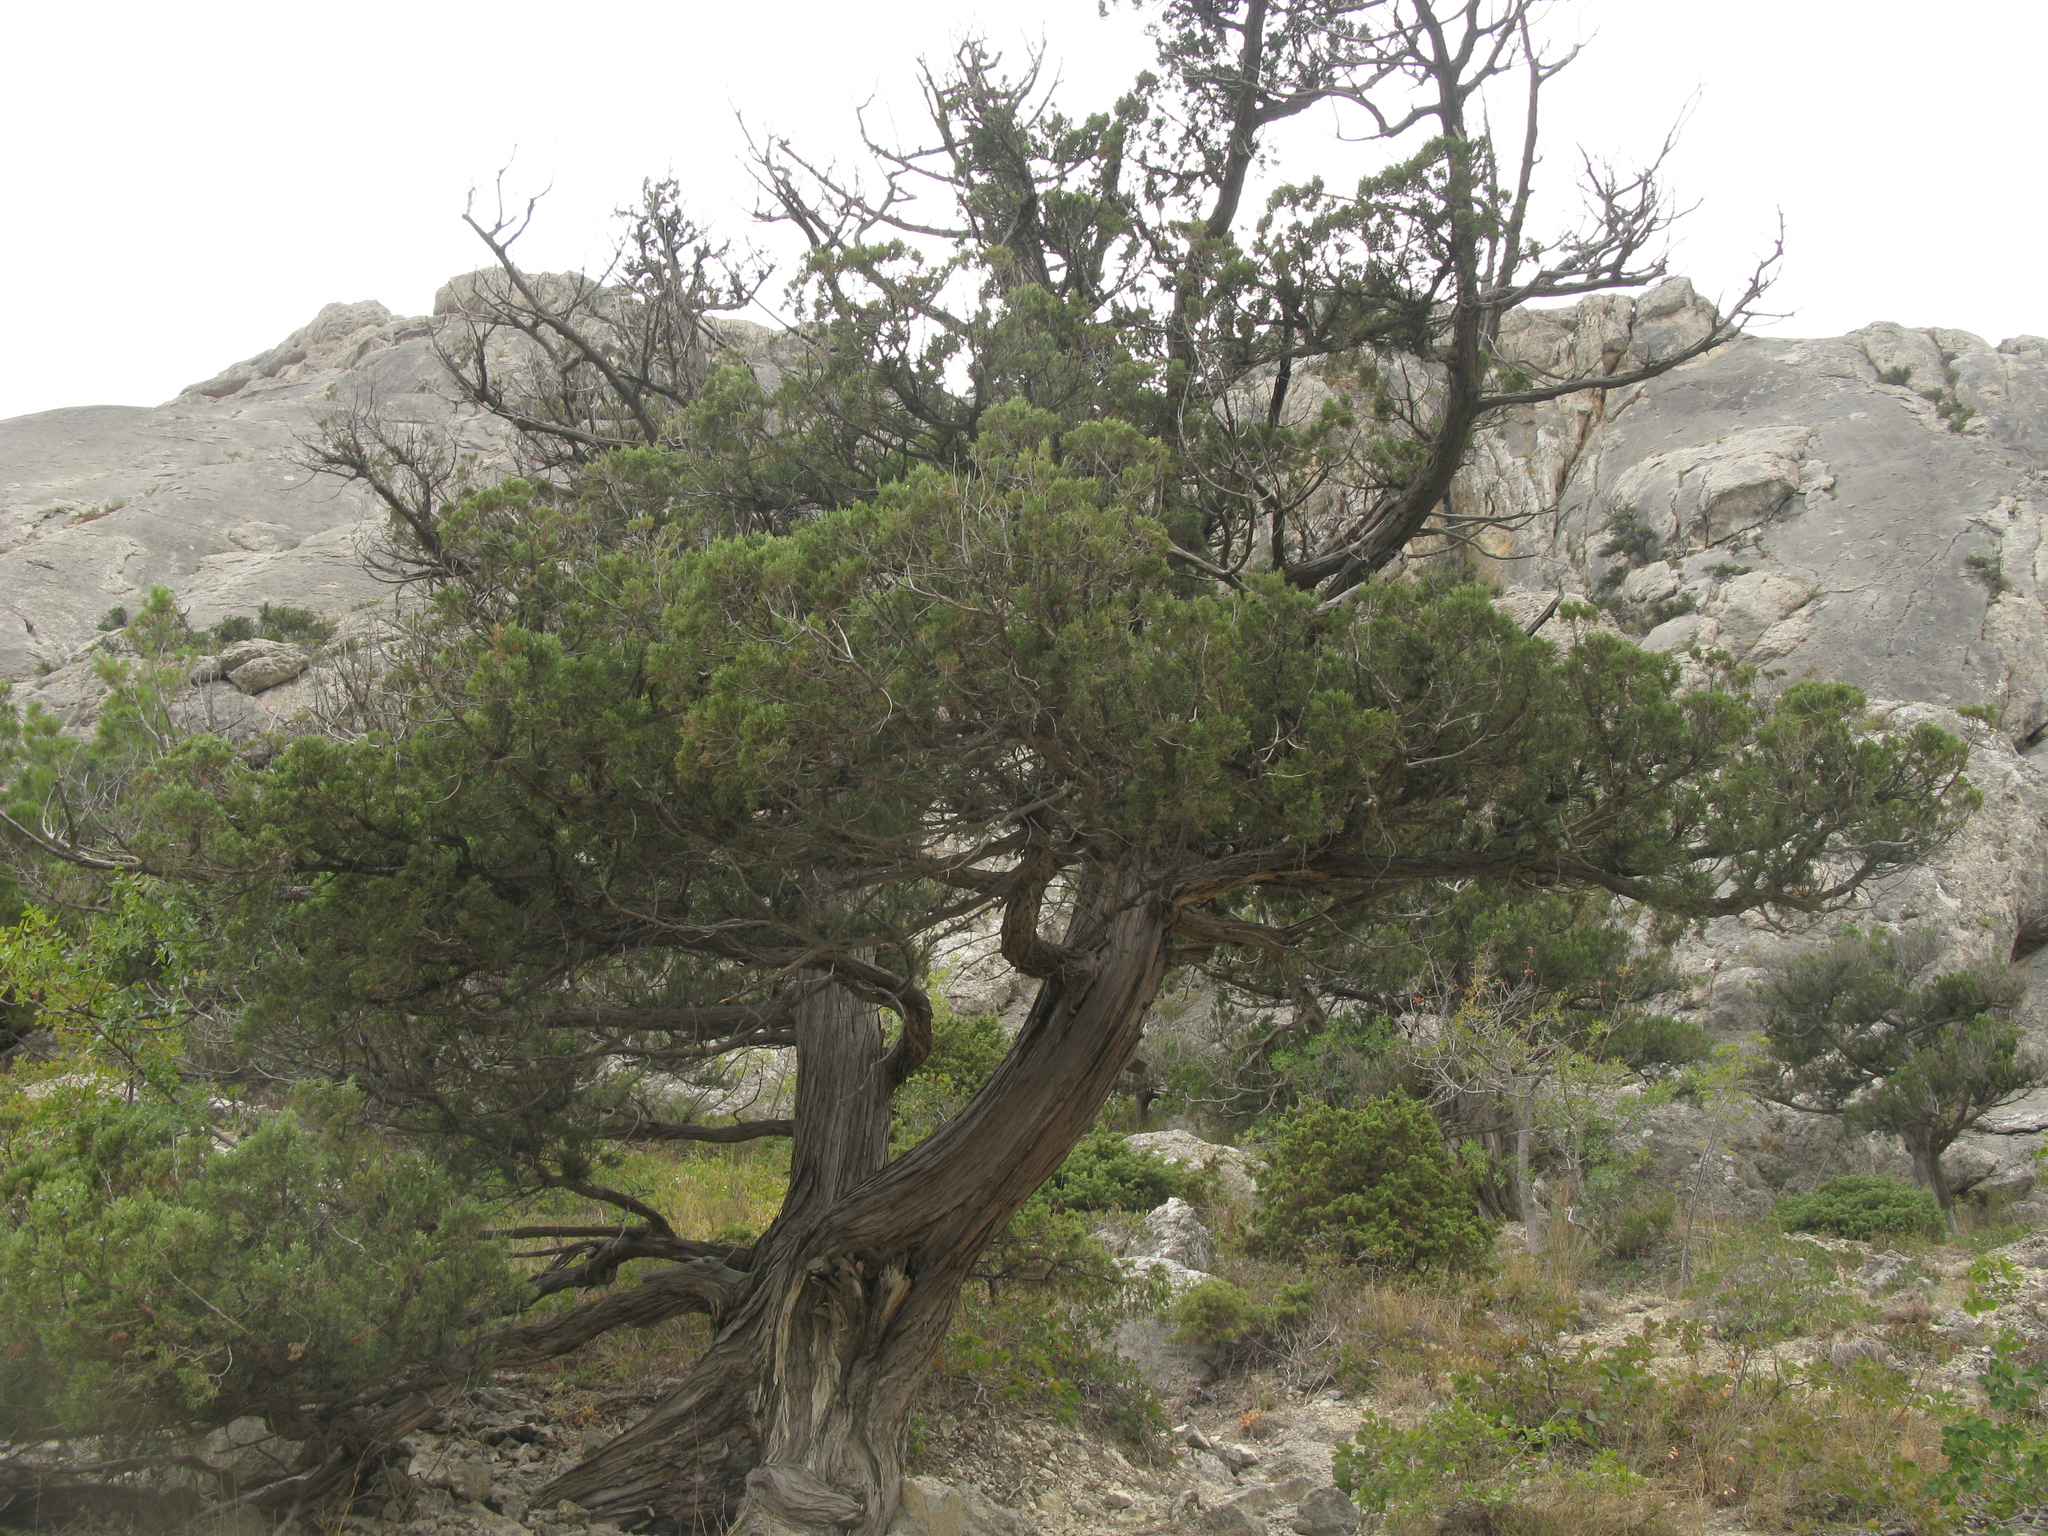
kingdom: Plantae
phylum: Tracheophyta
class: Pinopsida
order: Pinales
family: Cupressaceae
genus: Juniperus
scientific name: Juniperus excelsa
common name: Crimean juniper
